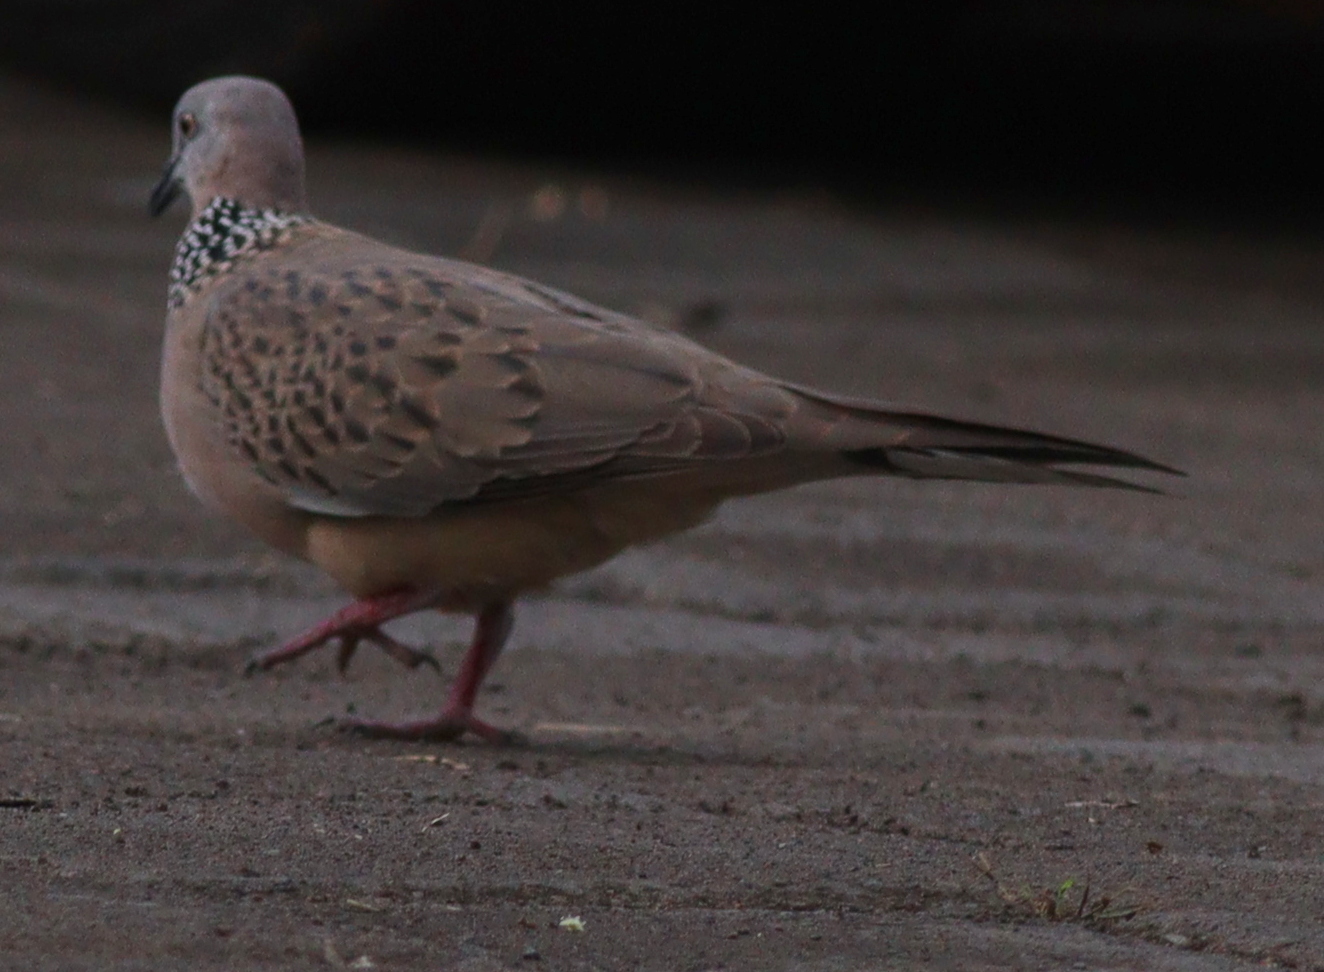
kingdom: Animalia
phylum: Chordata
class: Aves
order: Columbiformes
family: Columbidae
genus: Spilopelia
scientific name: Spilopelia chinensis
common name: Spotted dove
